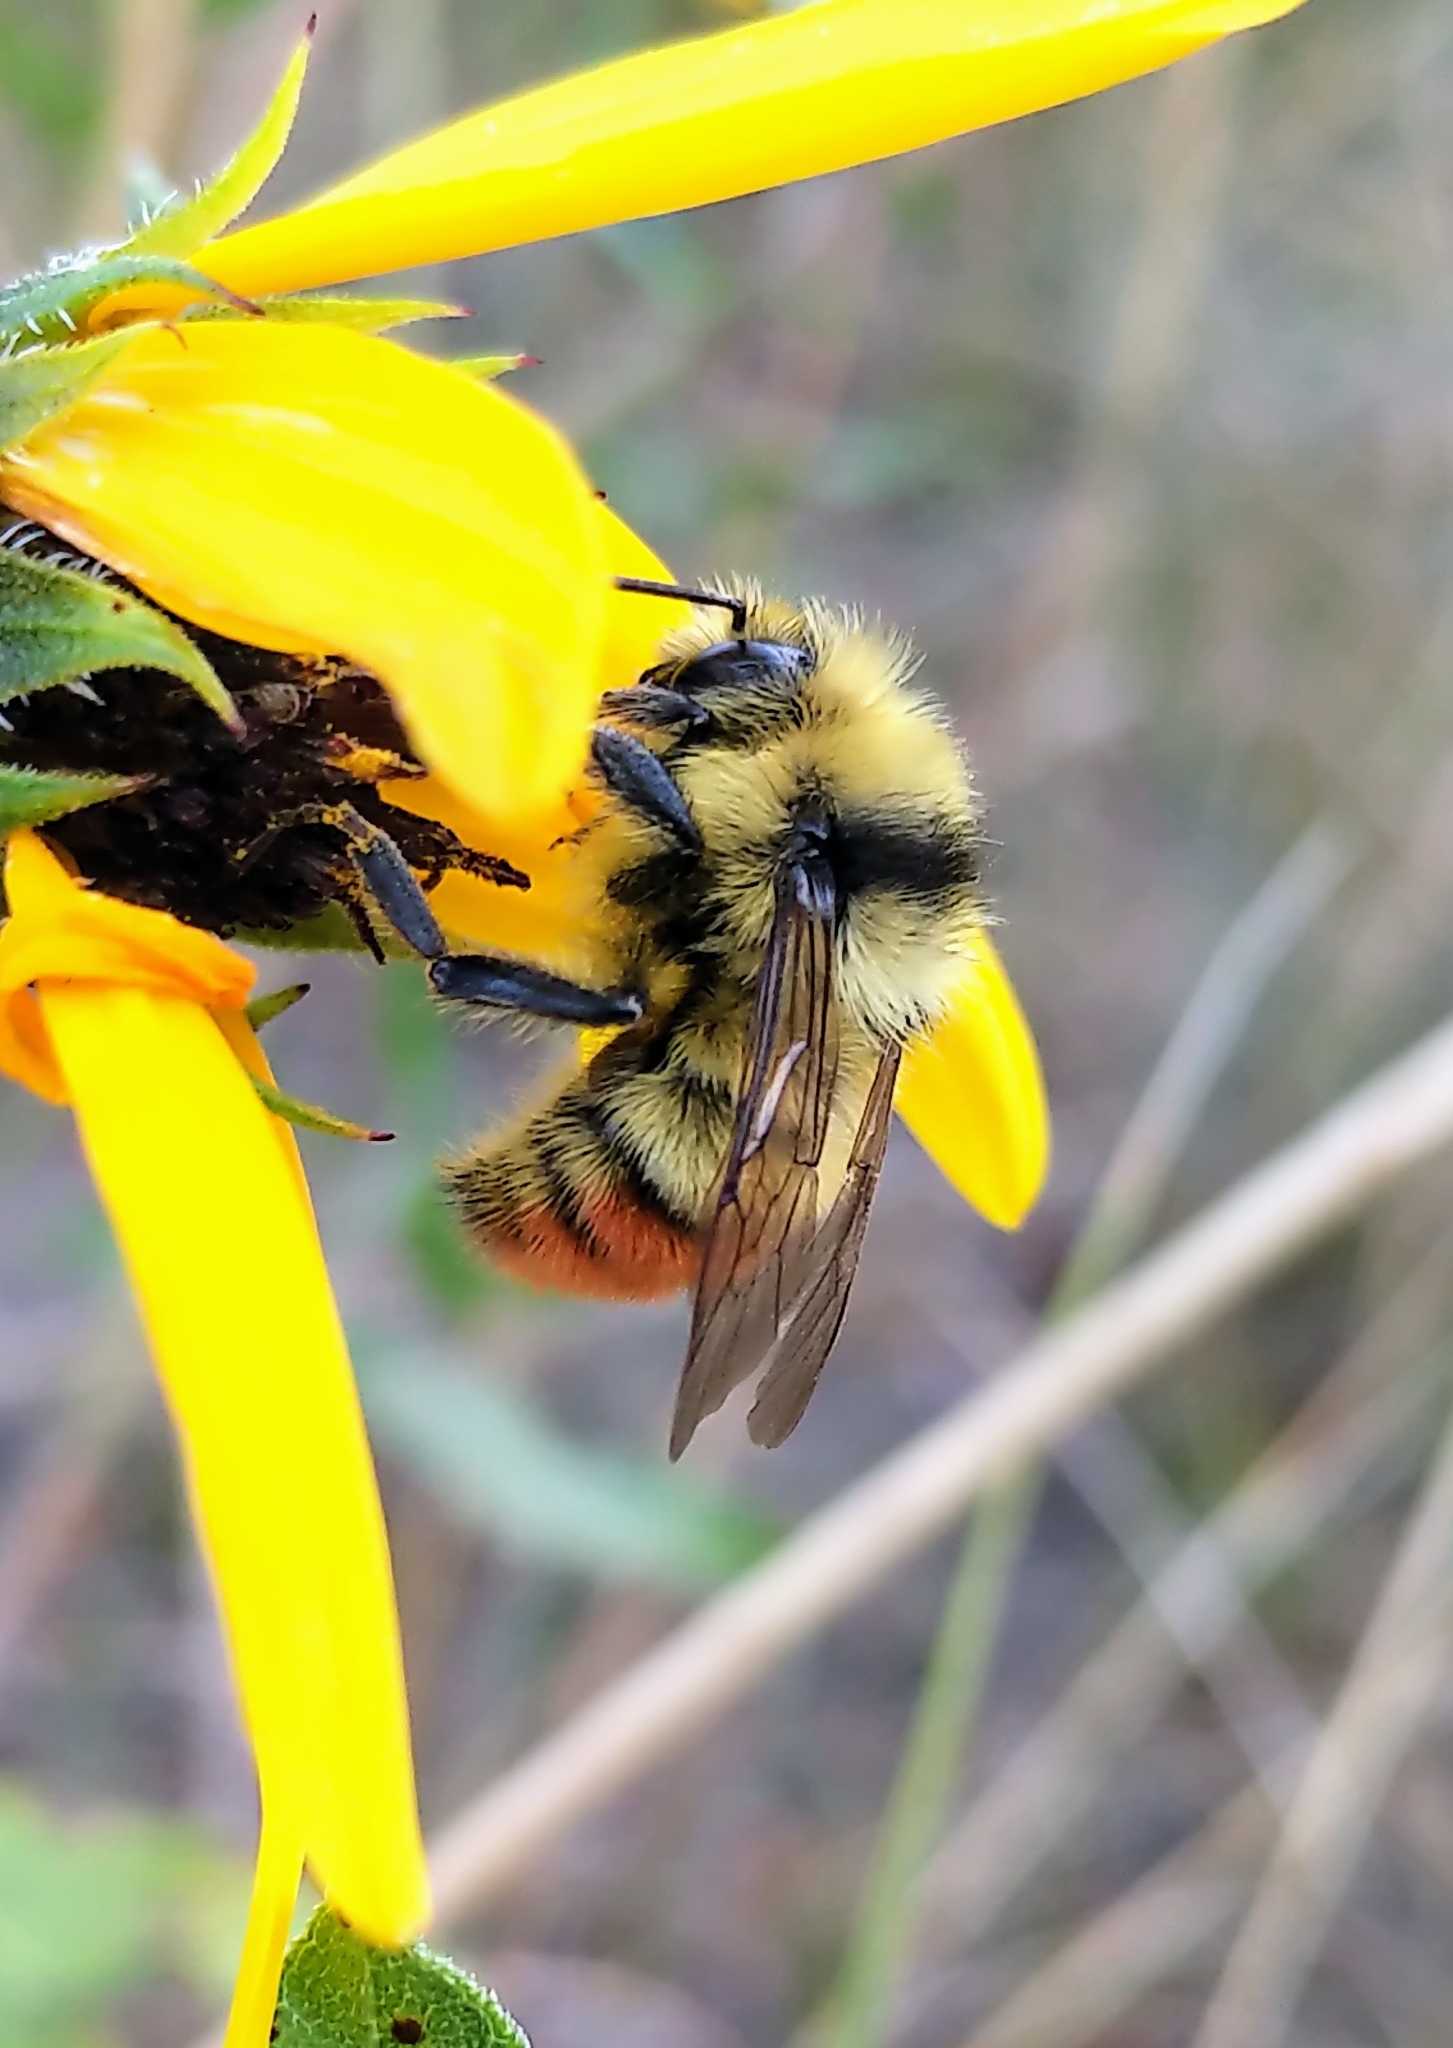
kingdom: Animalia
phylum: Arthropoda
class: Insecta
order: Hymenoptera
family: Apidae
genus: Bombus
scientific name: Bombus centralis
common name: Central bumble bee
